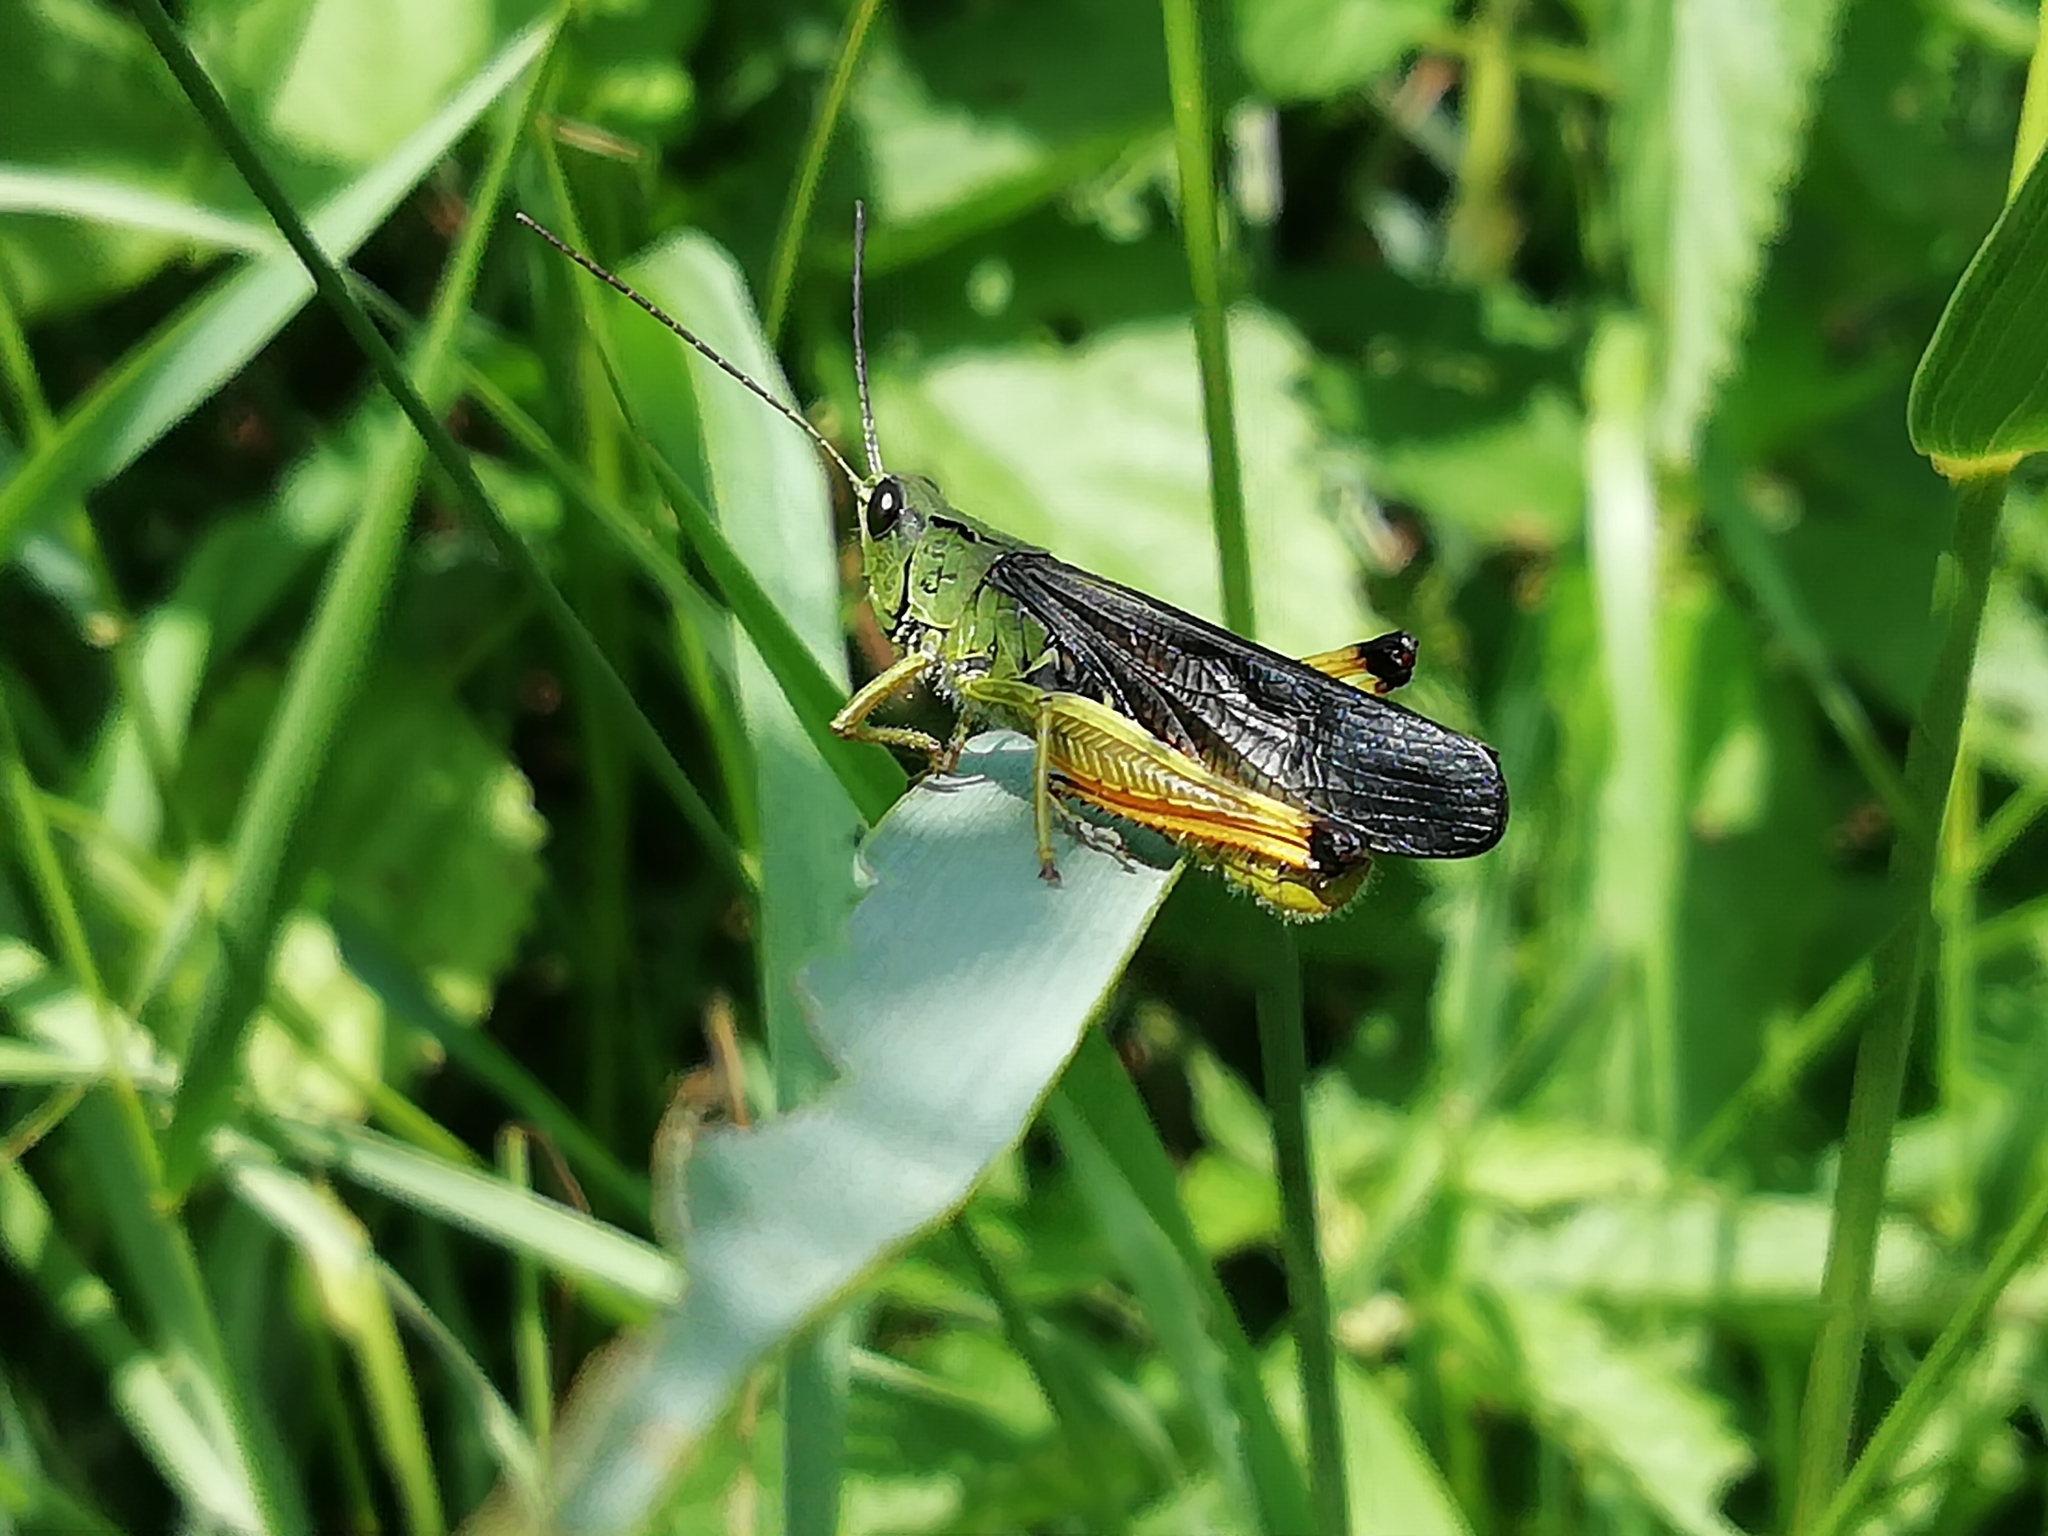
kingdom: Animalia
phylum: Arthropoda
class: Insecta
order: Orthoptera
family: Acrididae
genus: Megaulacobothrus
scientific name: Megaulacobothrus aethalinus
